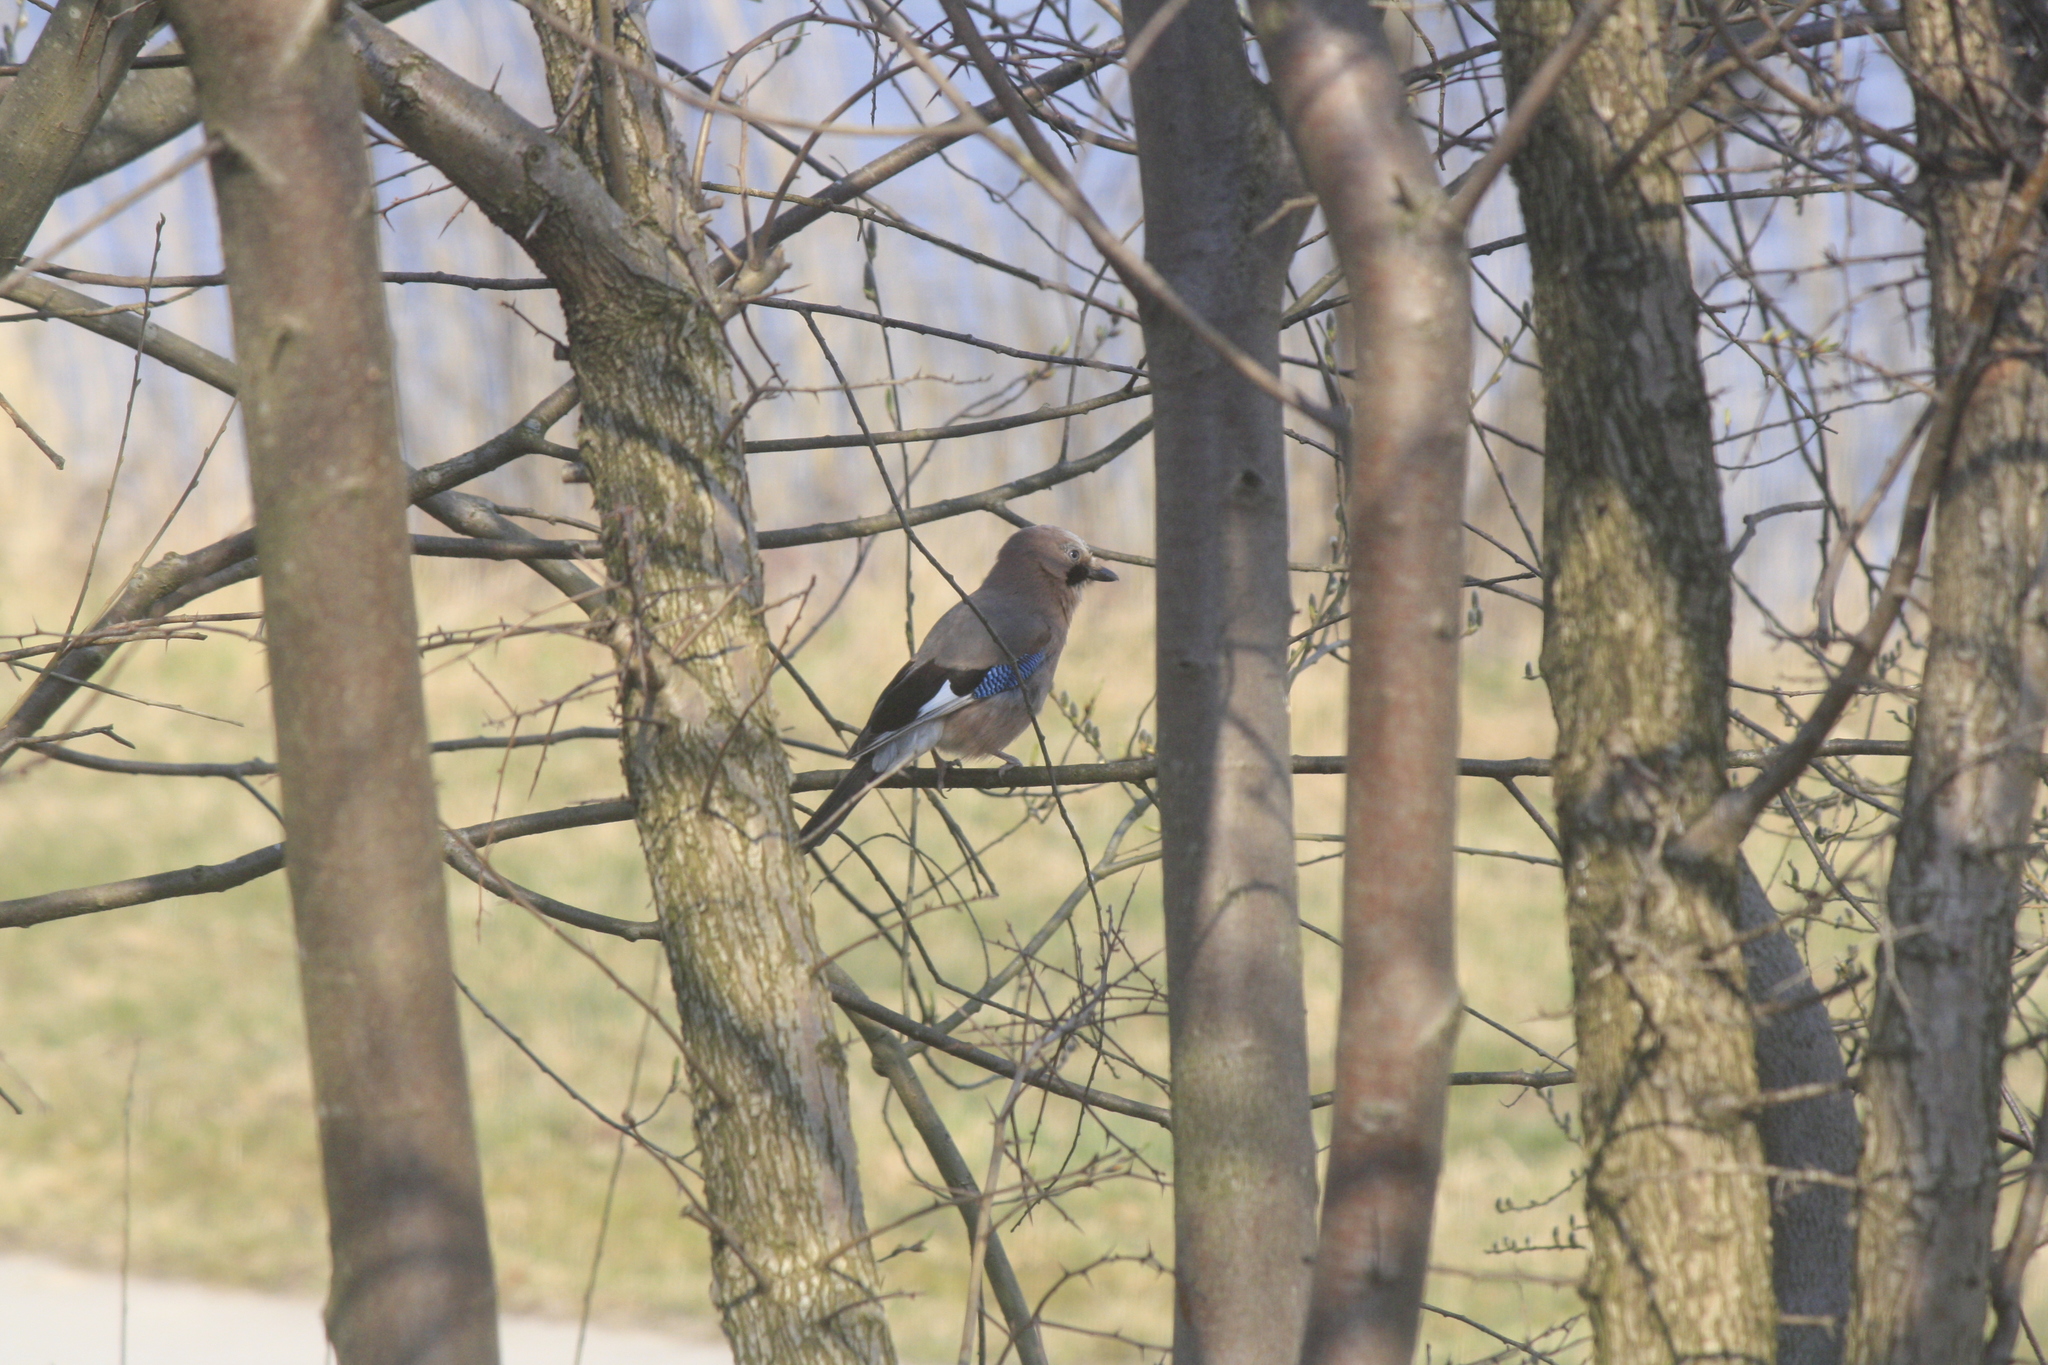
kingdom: Animalia
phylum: Chordata
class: Aves
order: Passeriformes
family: Corvidae
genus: Garrulus
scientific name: Garrulus glandarius
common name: Eurasian jay
